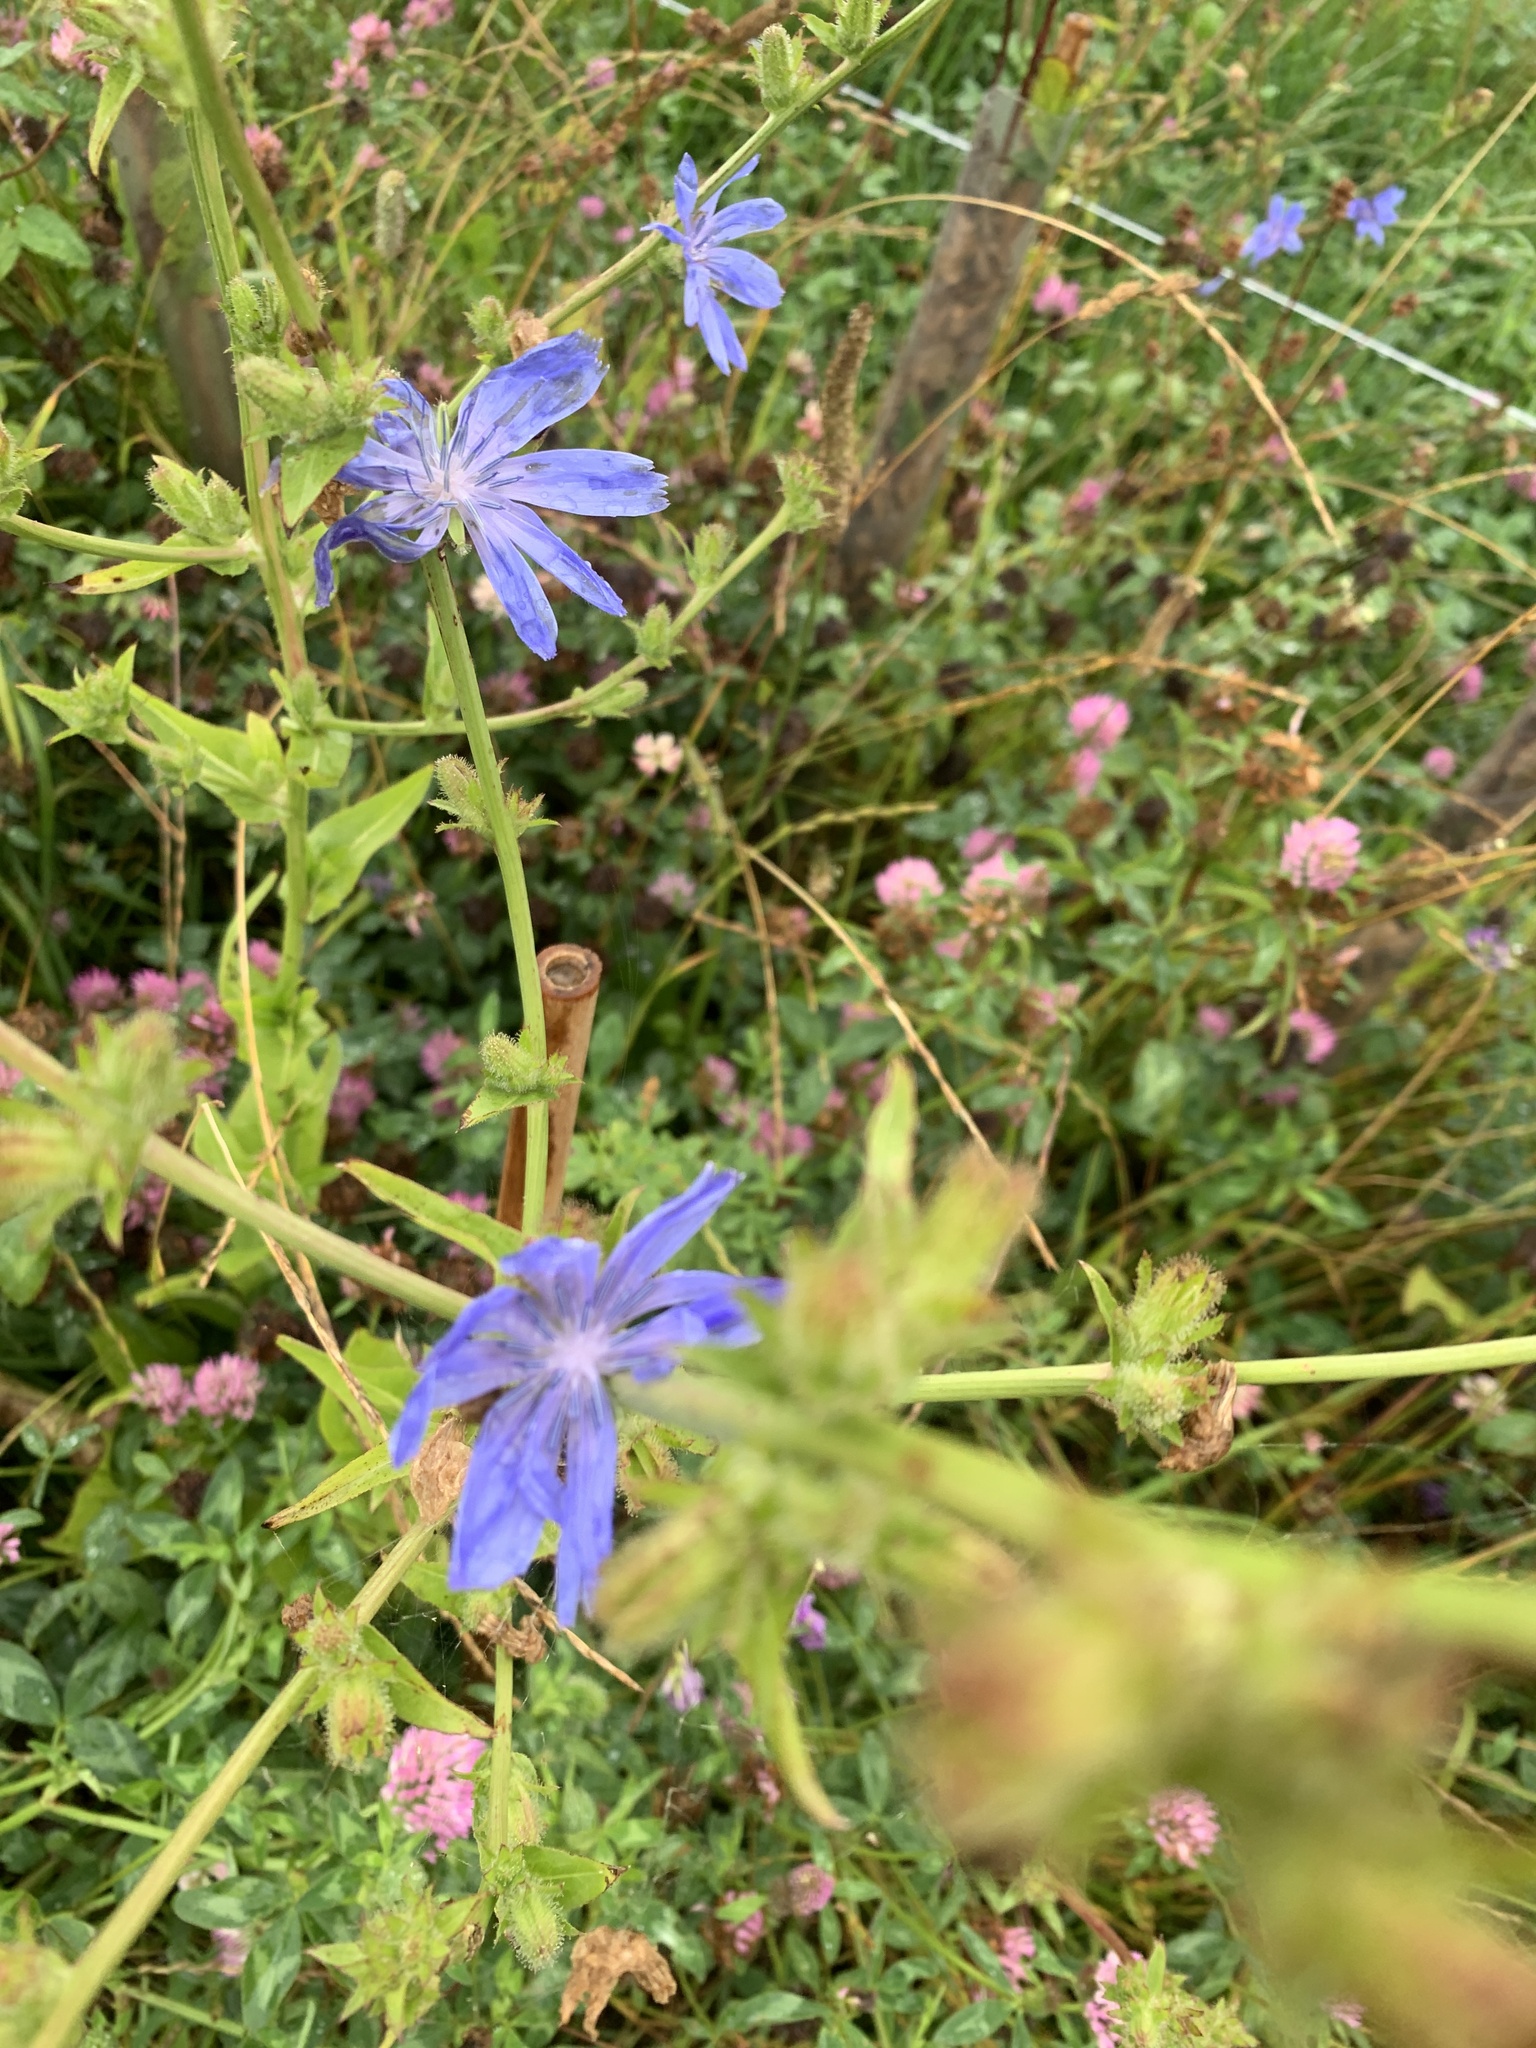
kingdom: Plantae
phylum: Tracheophyta
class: Magnoliopsida
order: Asterales
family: Asteraceae
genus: Cichorium
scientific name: Cichorium intybus
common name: Chicory
